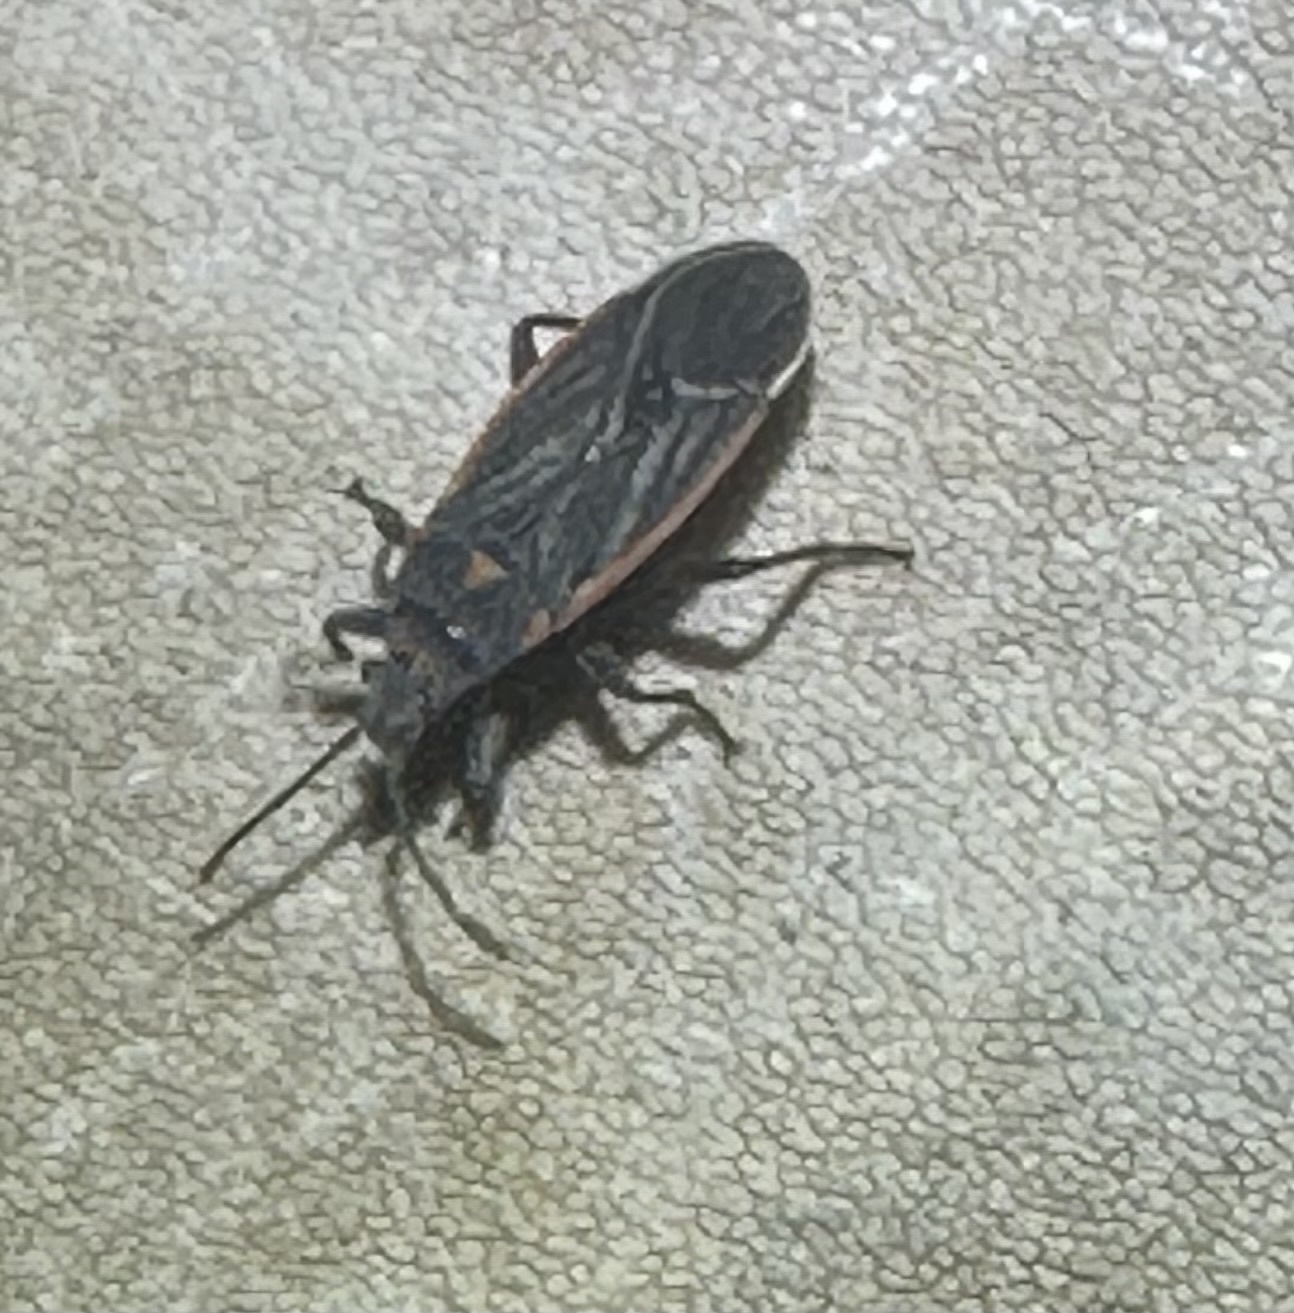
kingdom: Animalia
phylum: Arthropoda
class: Insecta
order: Hemiptera
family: Lygaeidae
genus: Melacoryphus
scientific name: Melacoryphus lateralis
